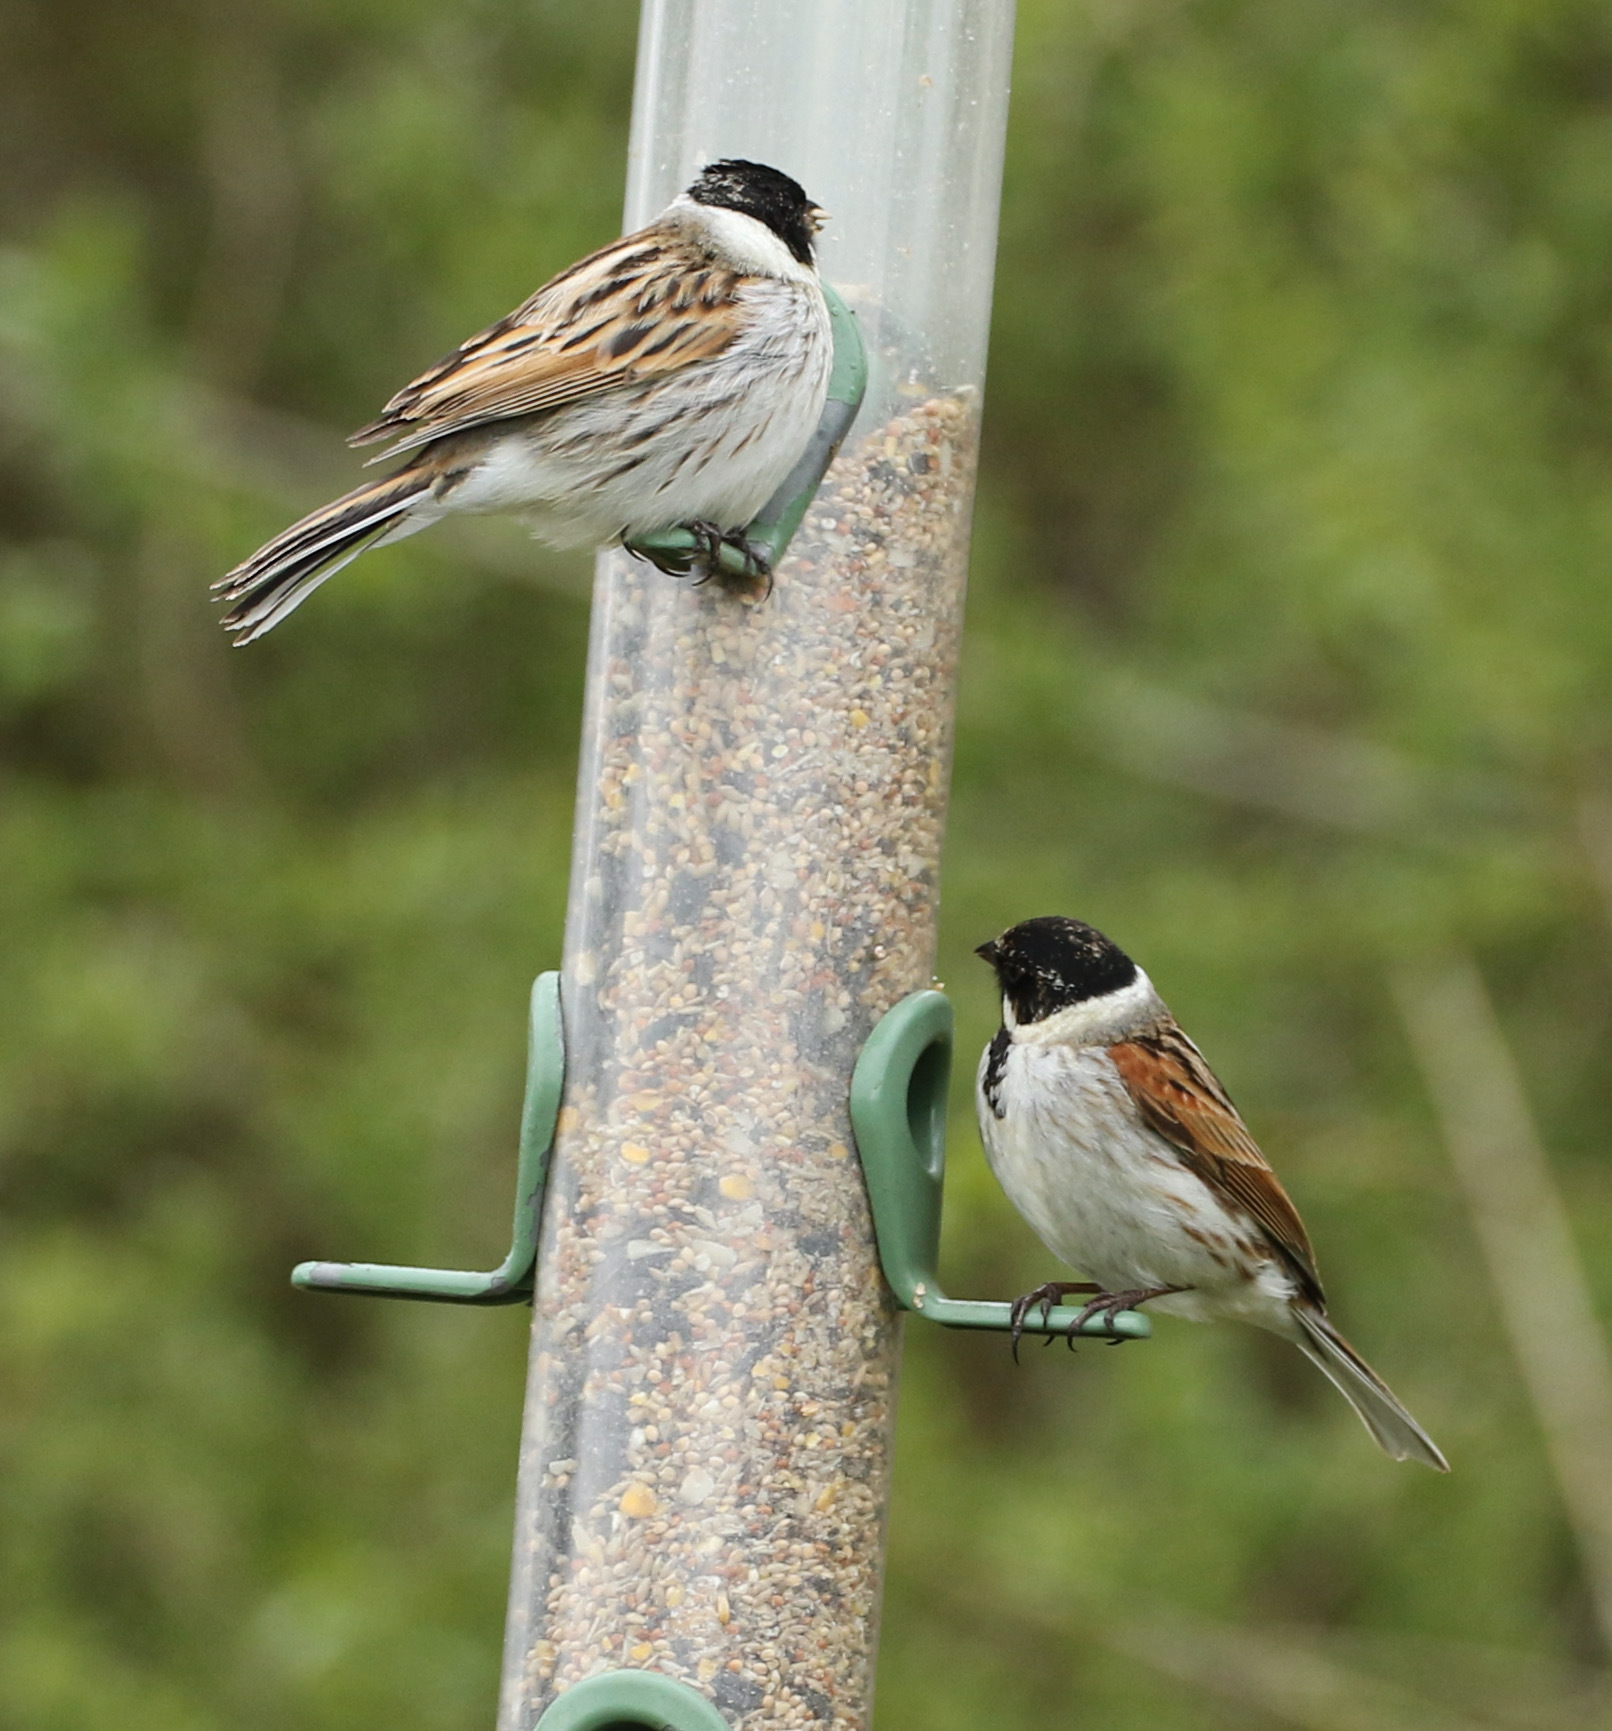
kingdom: Animalia
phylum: Chordata
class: Aves
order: Passeriformes
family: Emberizidae
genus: Emberiza
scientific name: Emberiza schoeniclus
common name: Reed bunting
